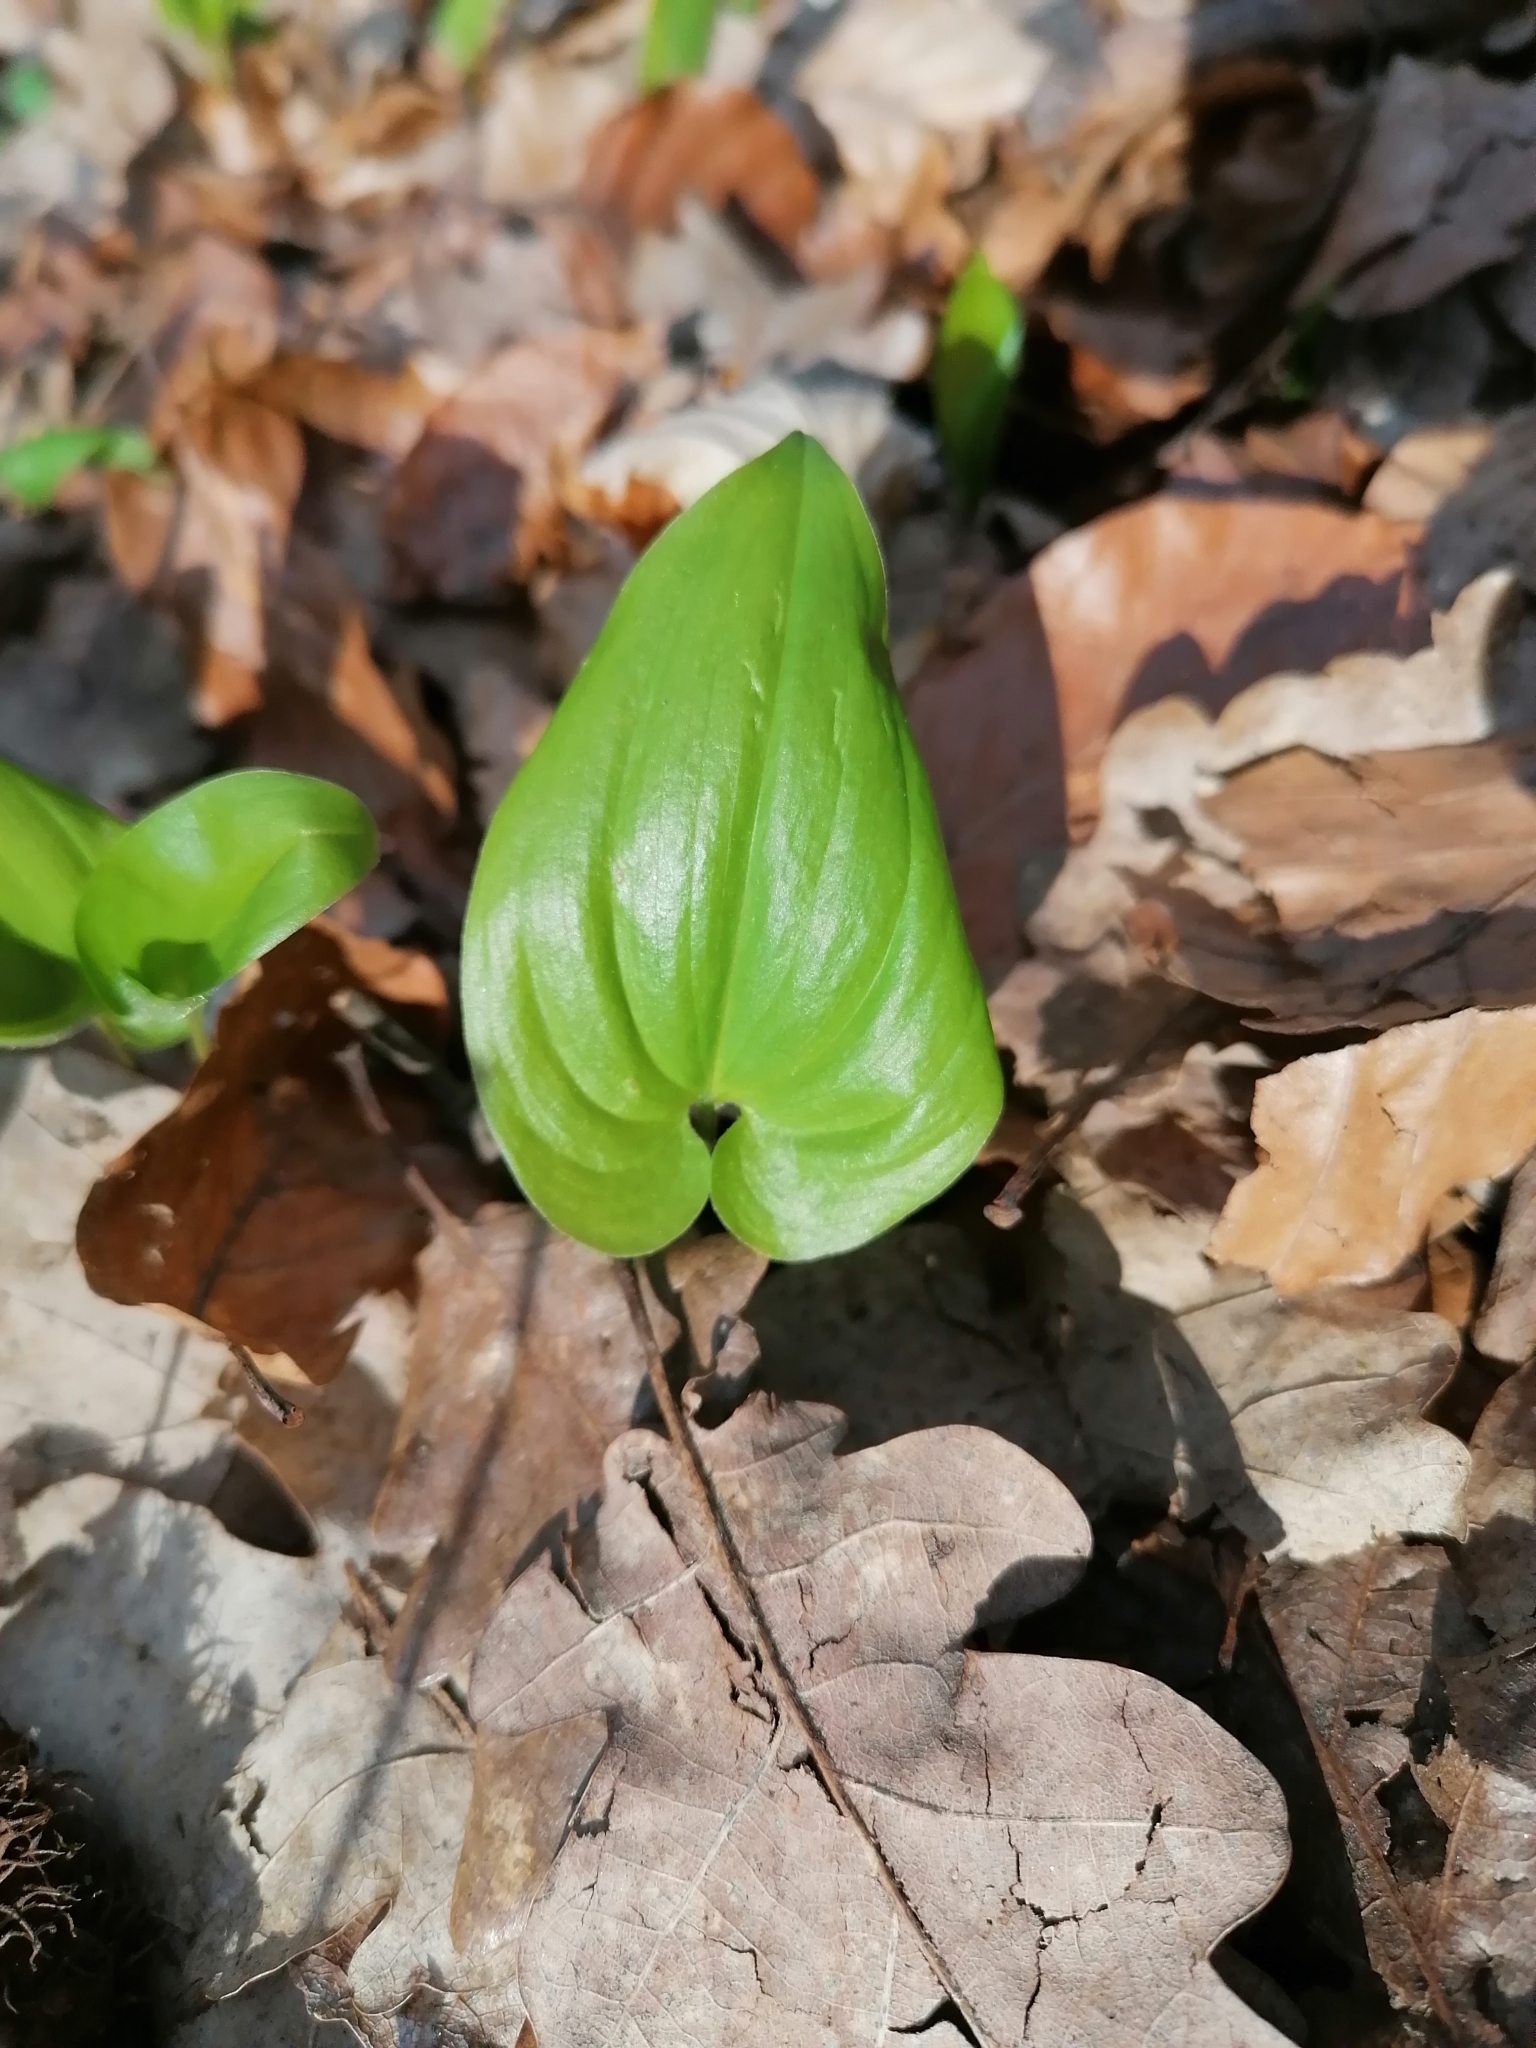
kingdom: Plantae
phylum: Tracheophyta
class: Liliopsida
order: Asparagales
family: Asparagaceae
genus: Maianthemum
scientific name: Maianthemum bifolium
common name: May lily
